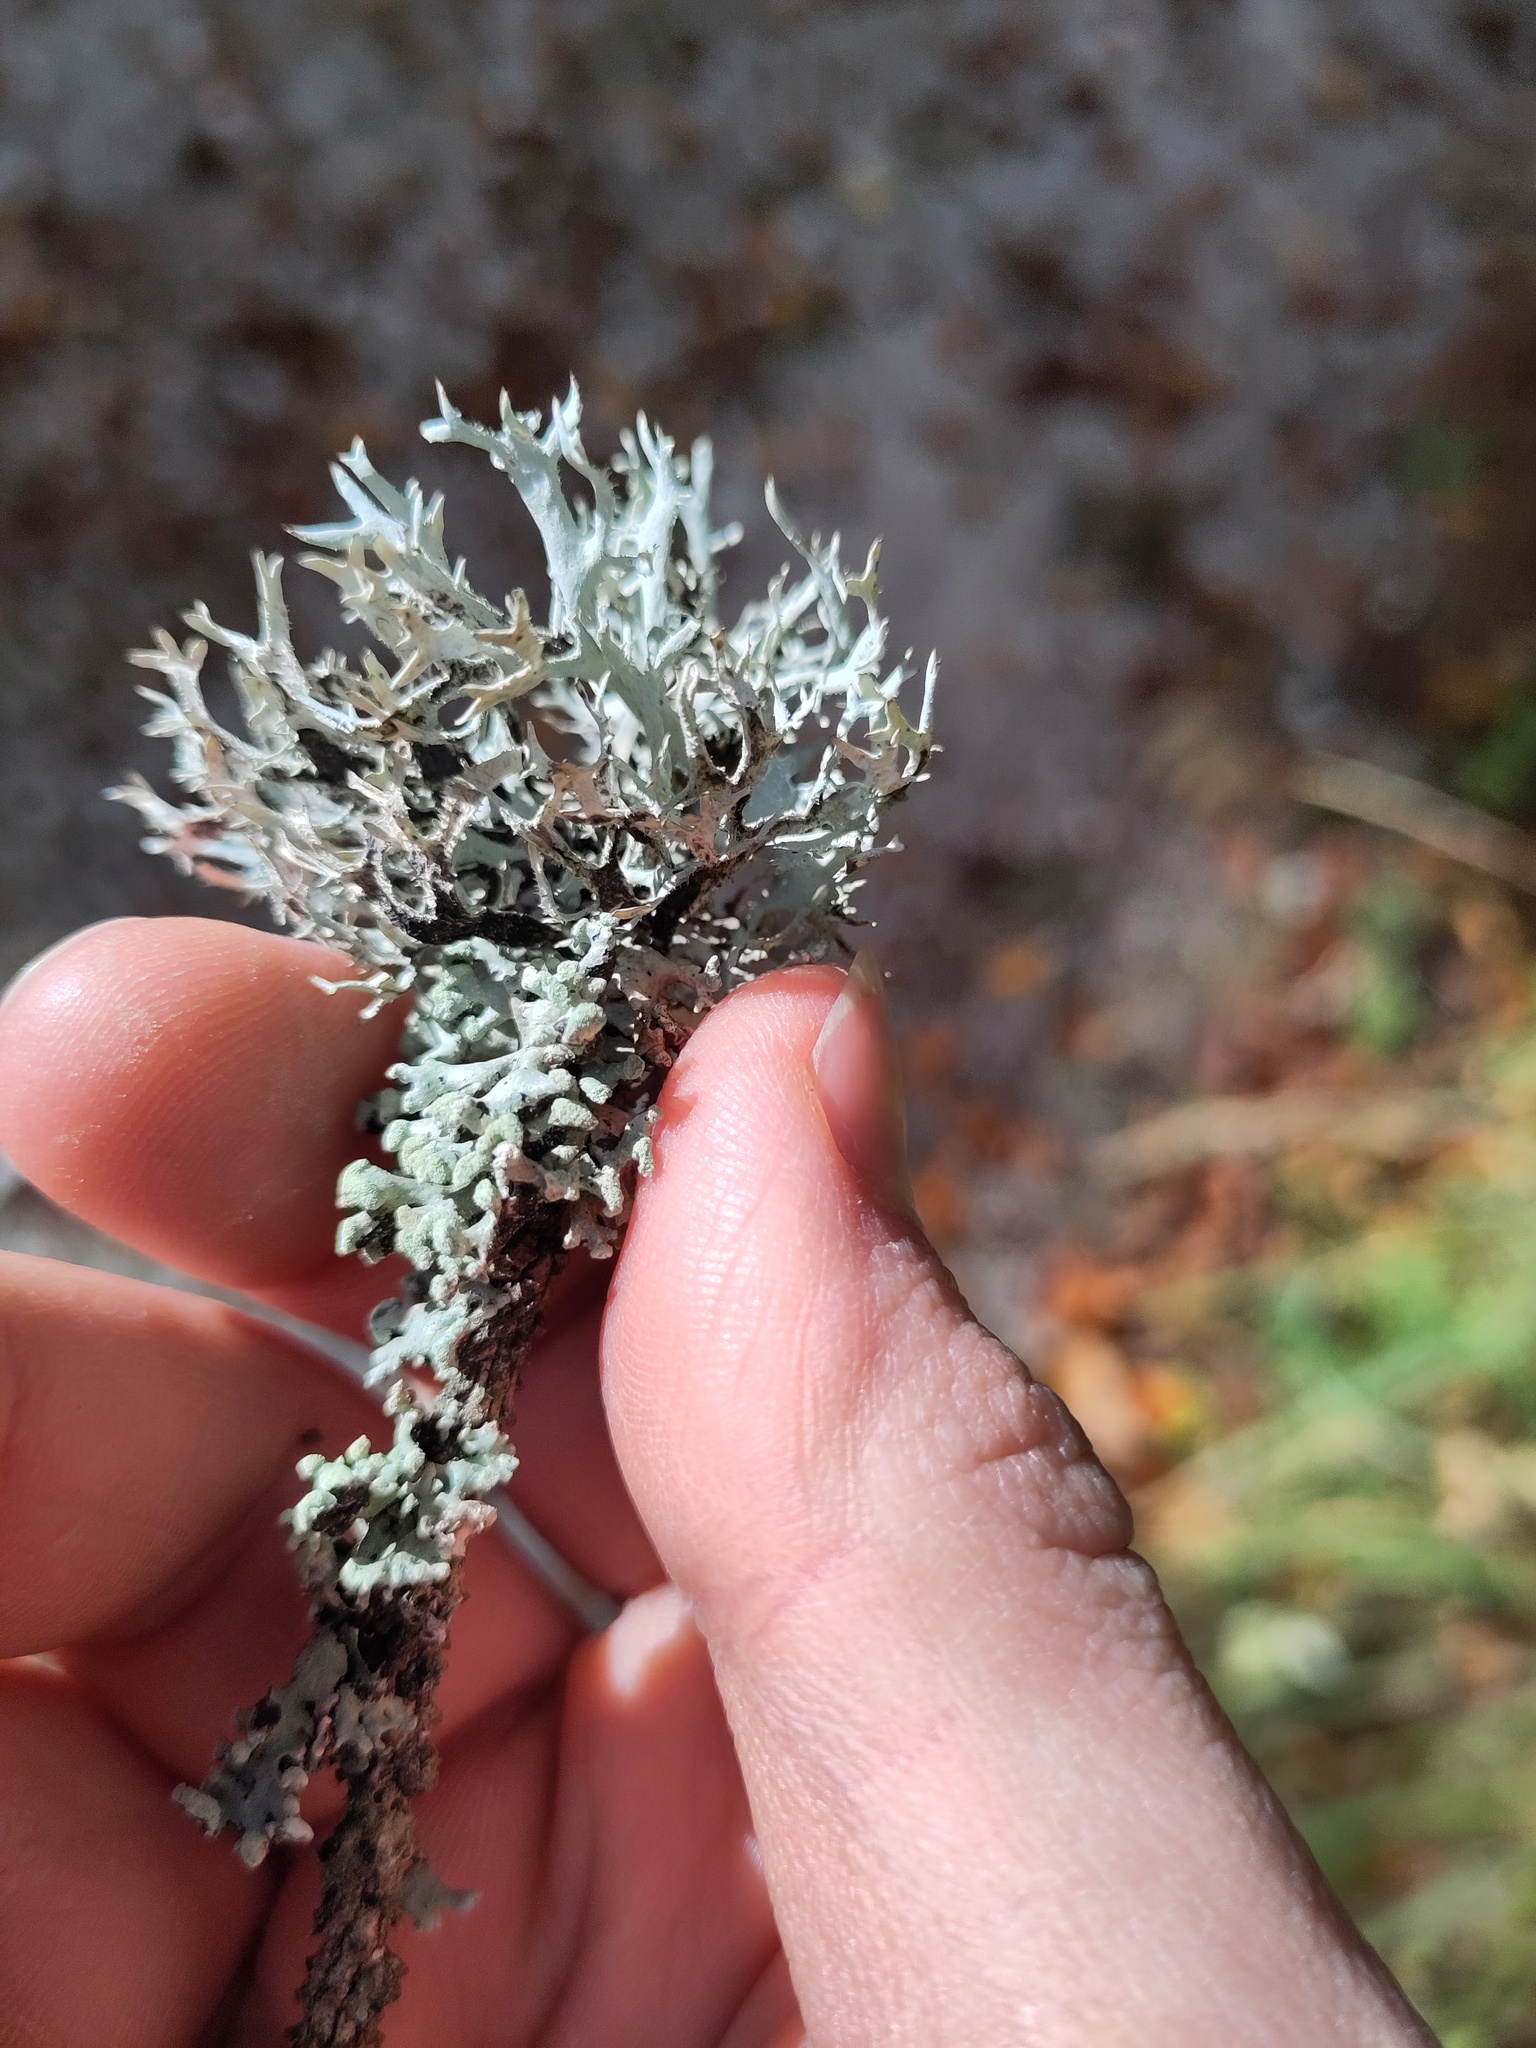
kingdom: Fungi
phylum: Ascomycota
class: Lecanoromycetes
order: Lecanorales
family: Parmeliaceae
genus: Hypogymnia
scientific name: Hypogymnia tubulosa
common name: Powder-headed tube lichen
